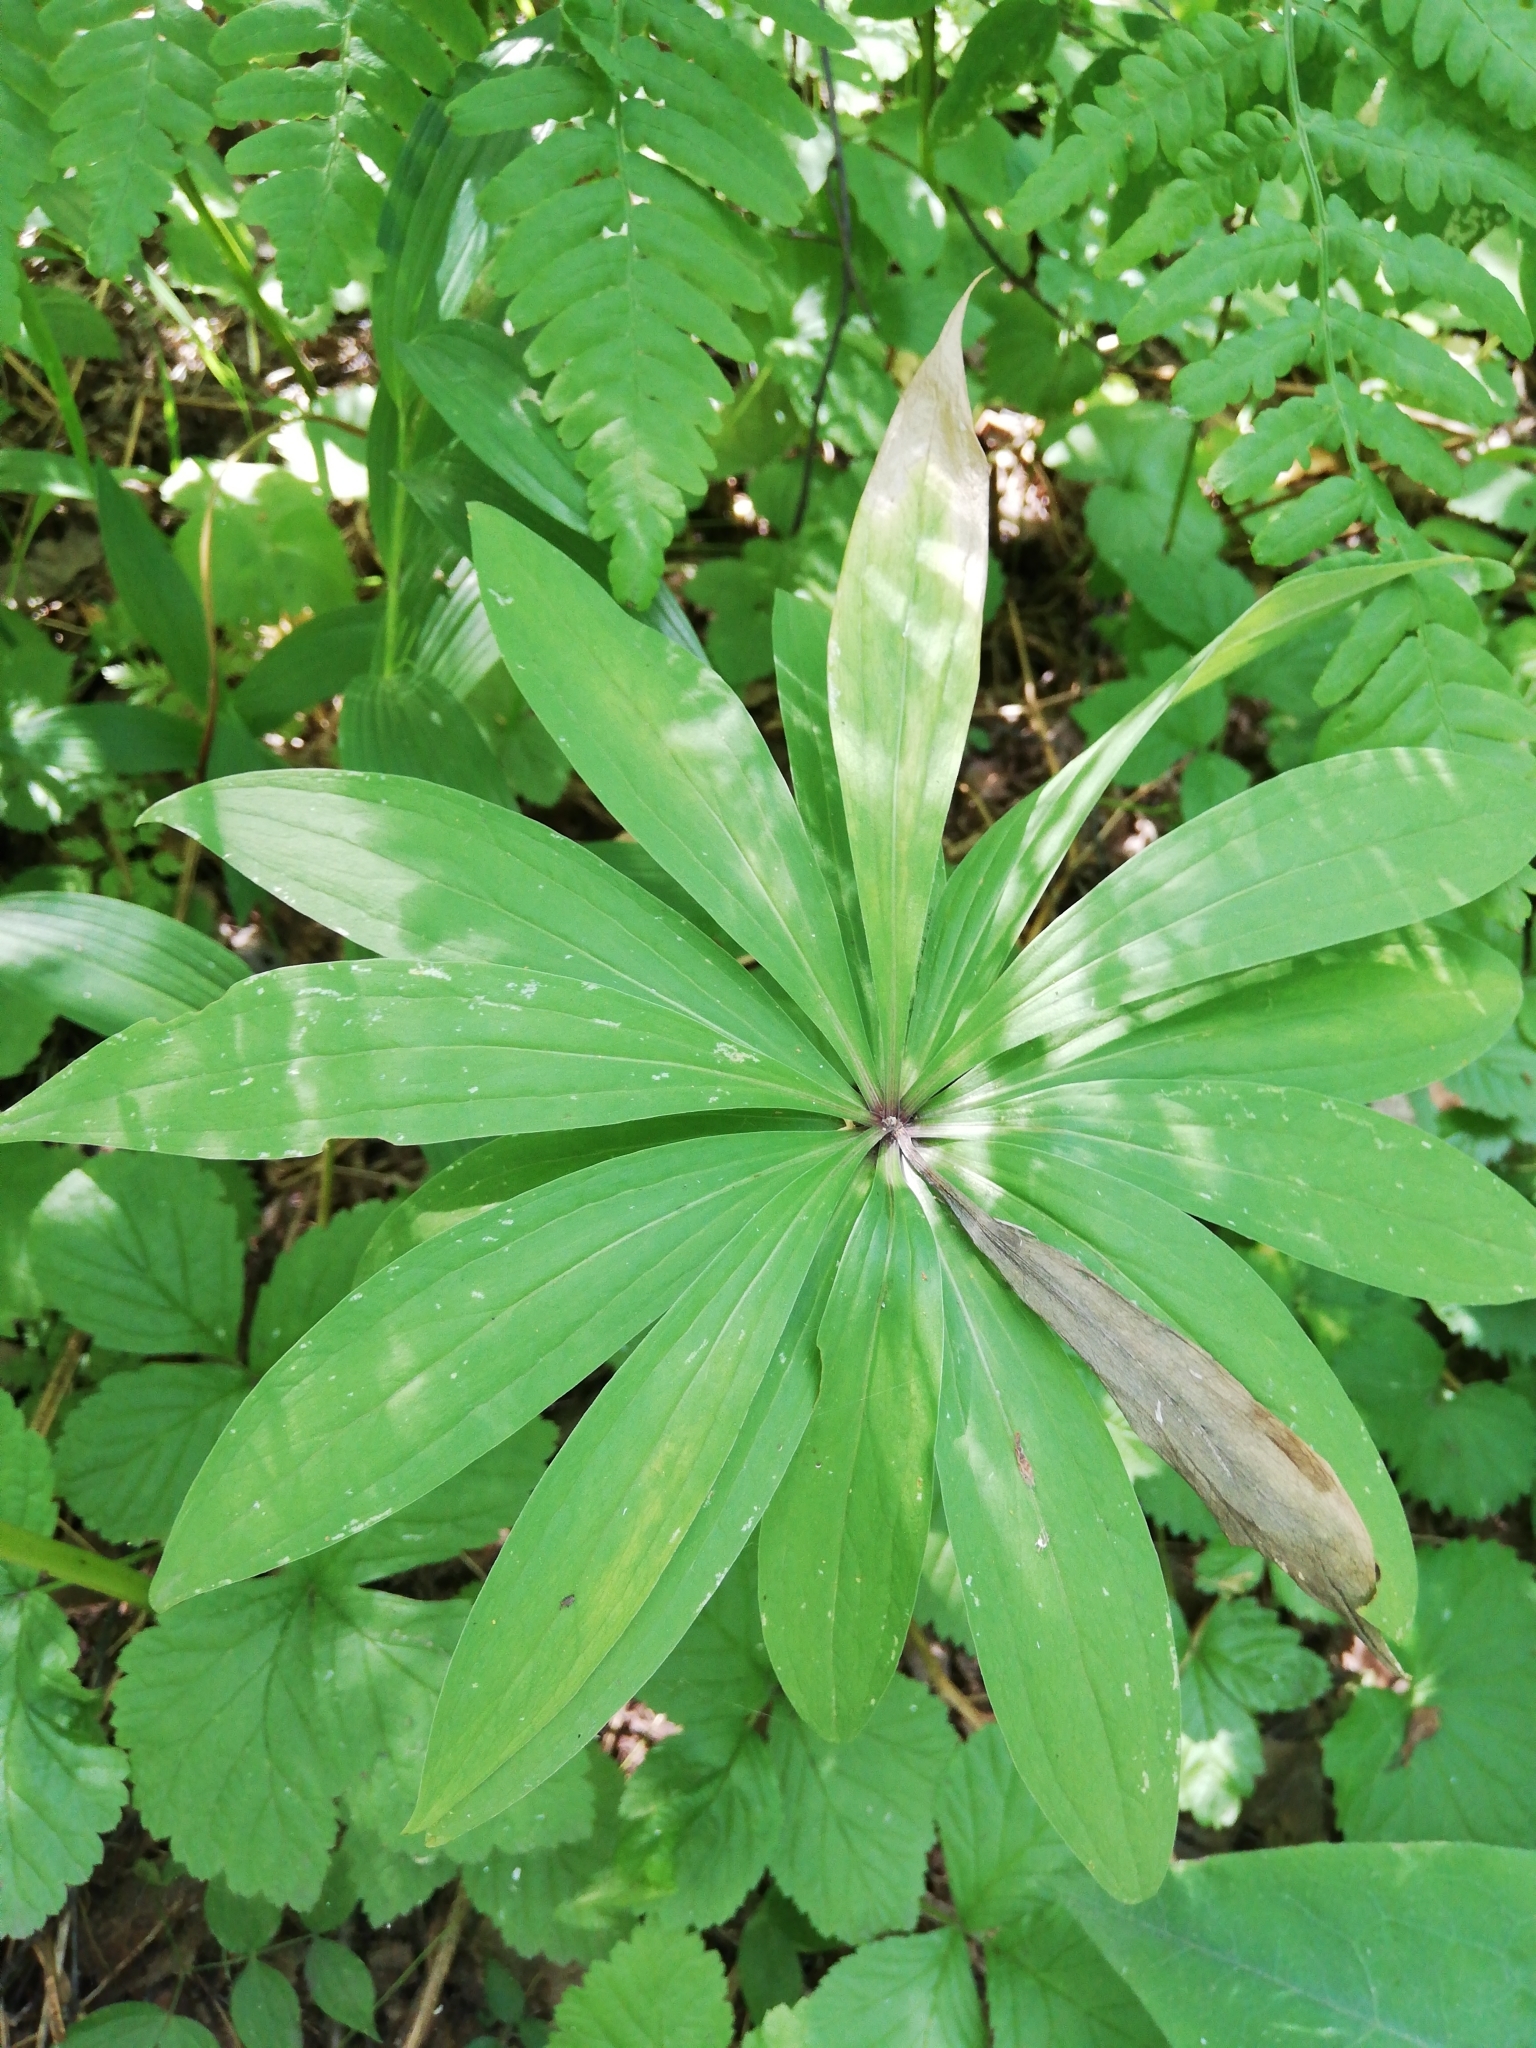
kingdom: Plantae
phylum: Tracheophyta
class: Liliopsida
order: Liliales
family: Liliaceae
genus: Lilium
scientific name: Lilium martagon
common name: Martagon lily
